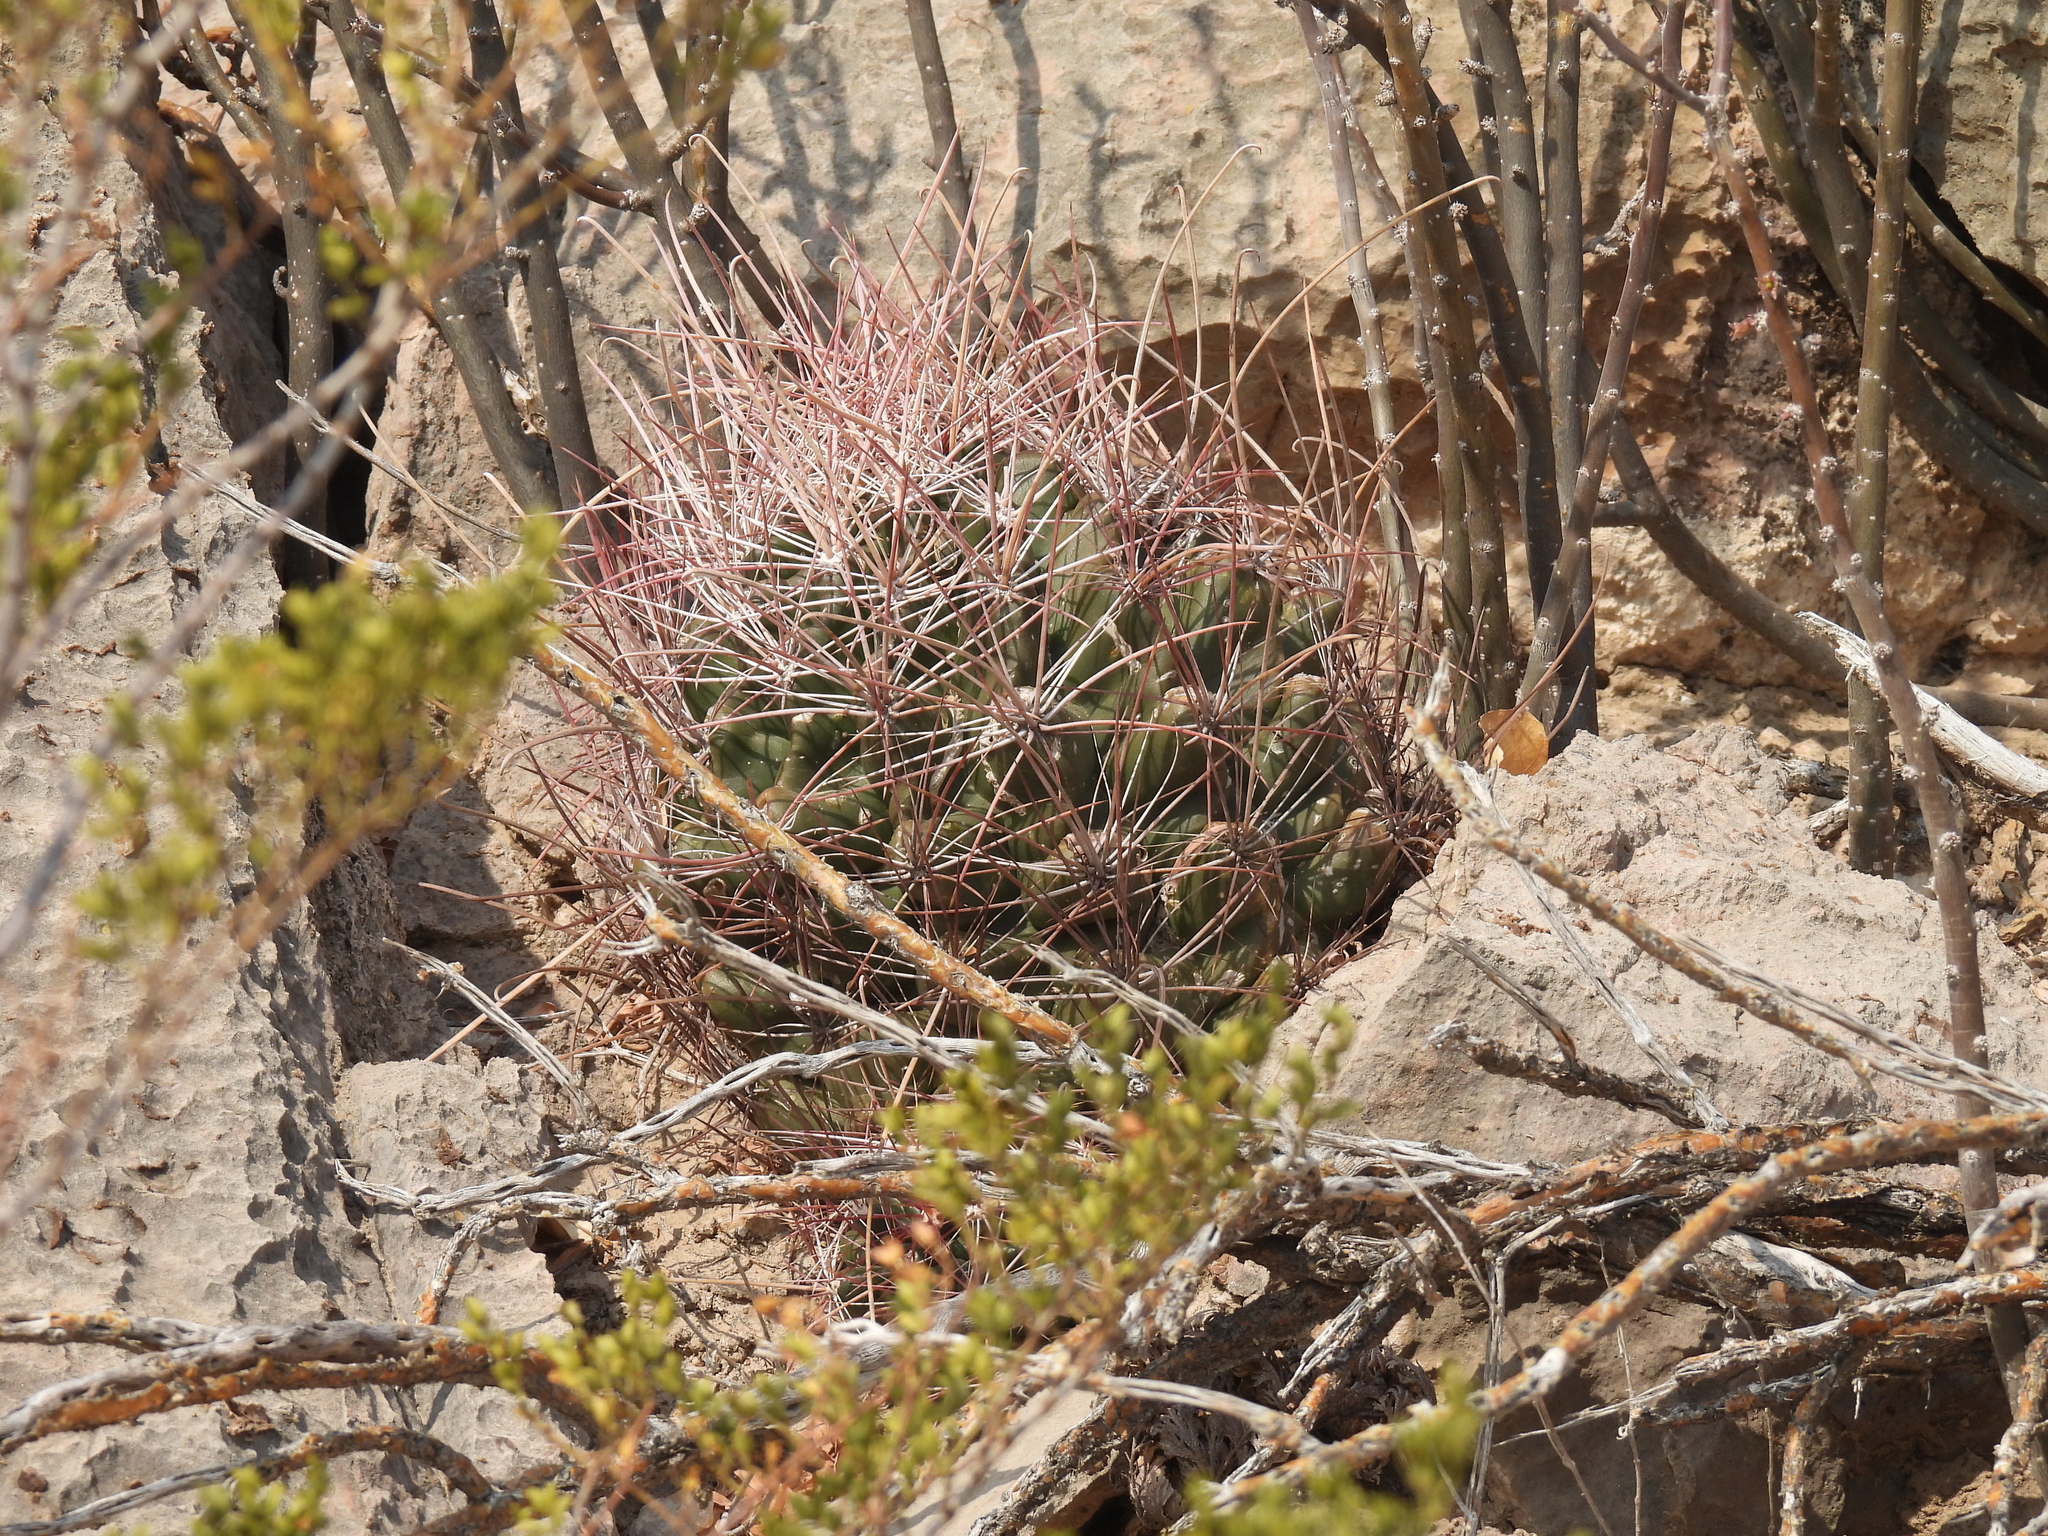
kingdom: Plantae
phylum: Tracheophyta
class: Magnoliopsida
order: Caryophyllales
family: Cactaceae
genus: Bisnaga
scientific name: Bisnaga hamatacantha
